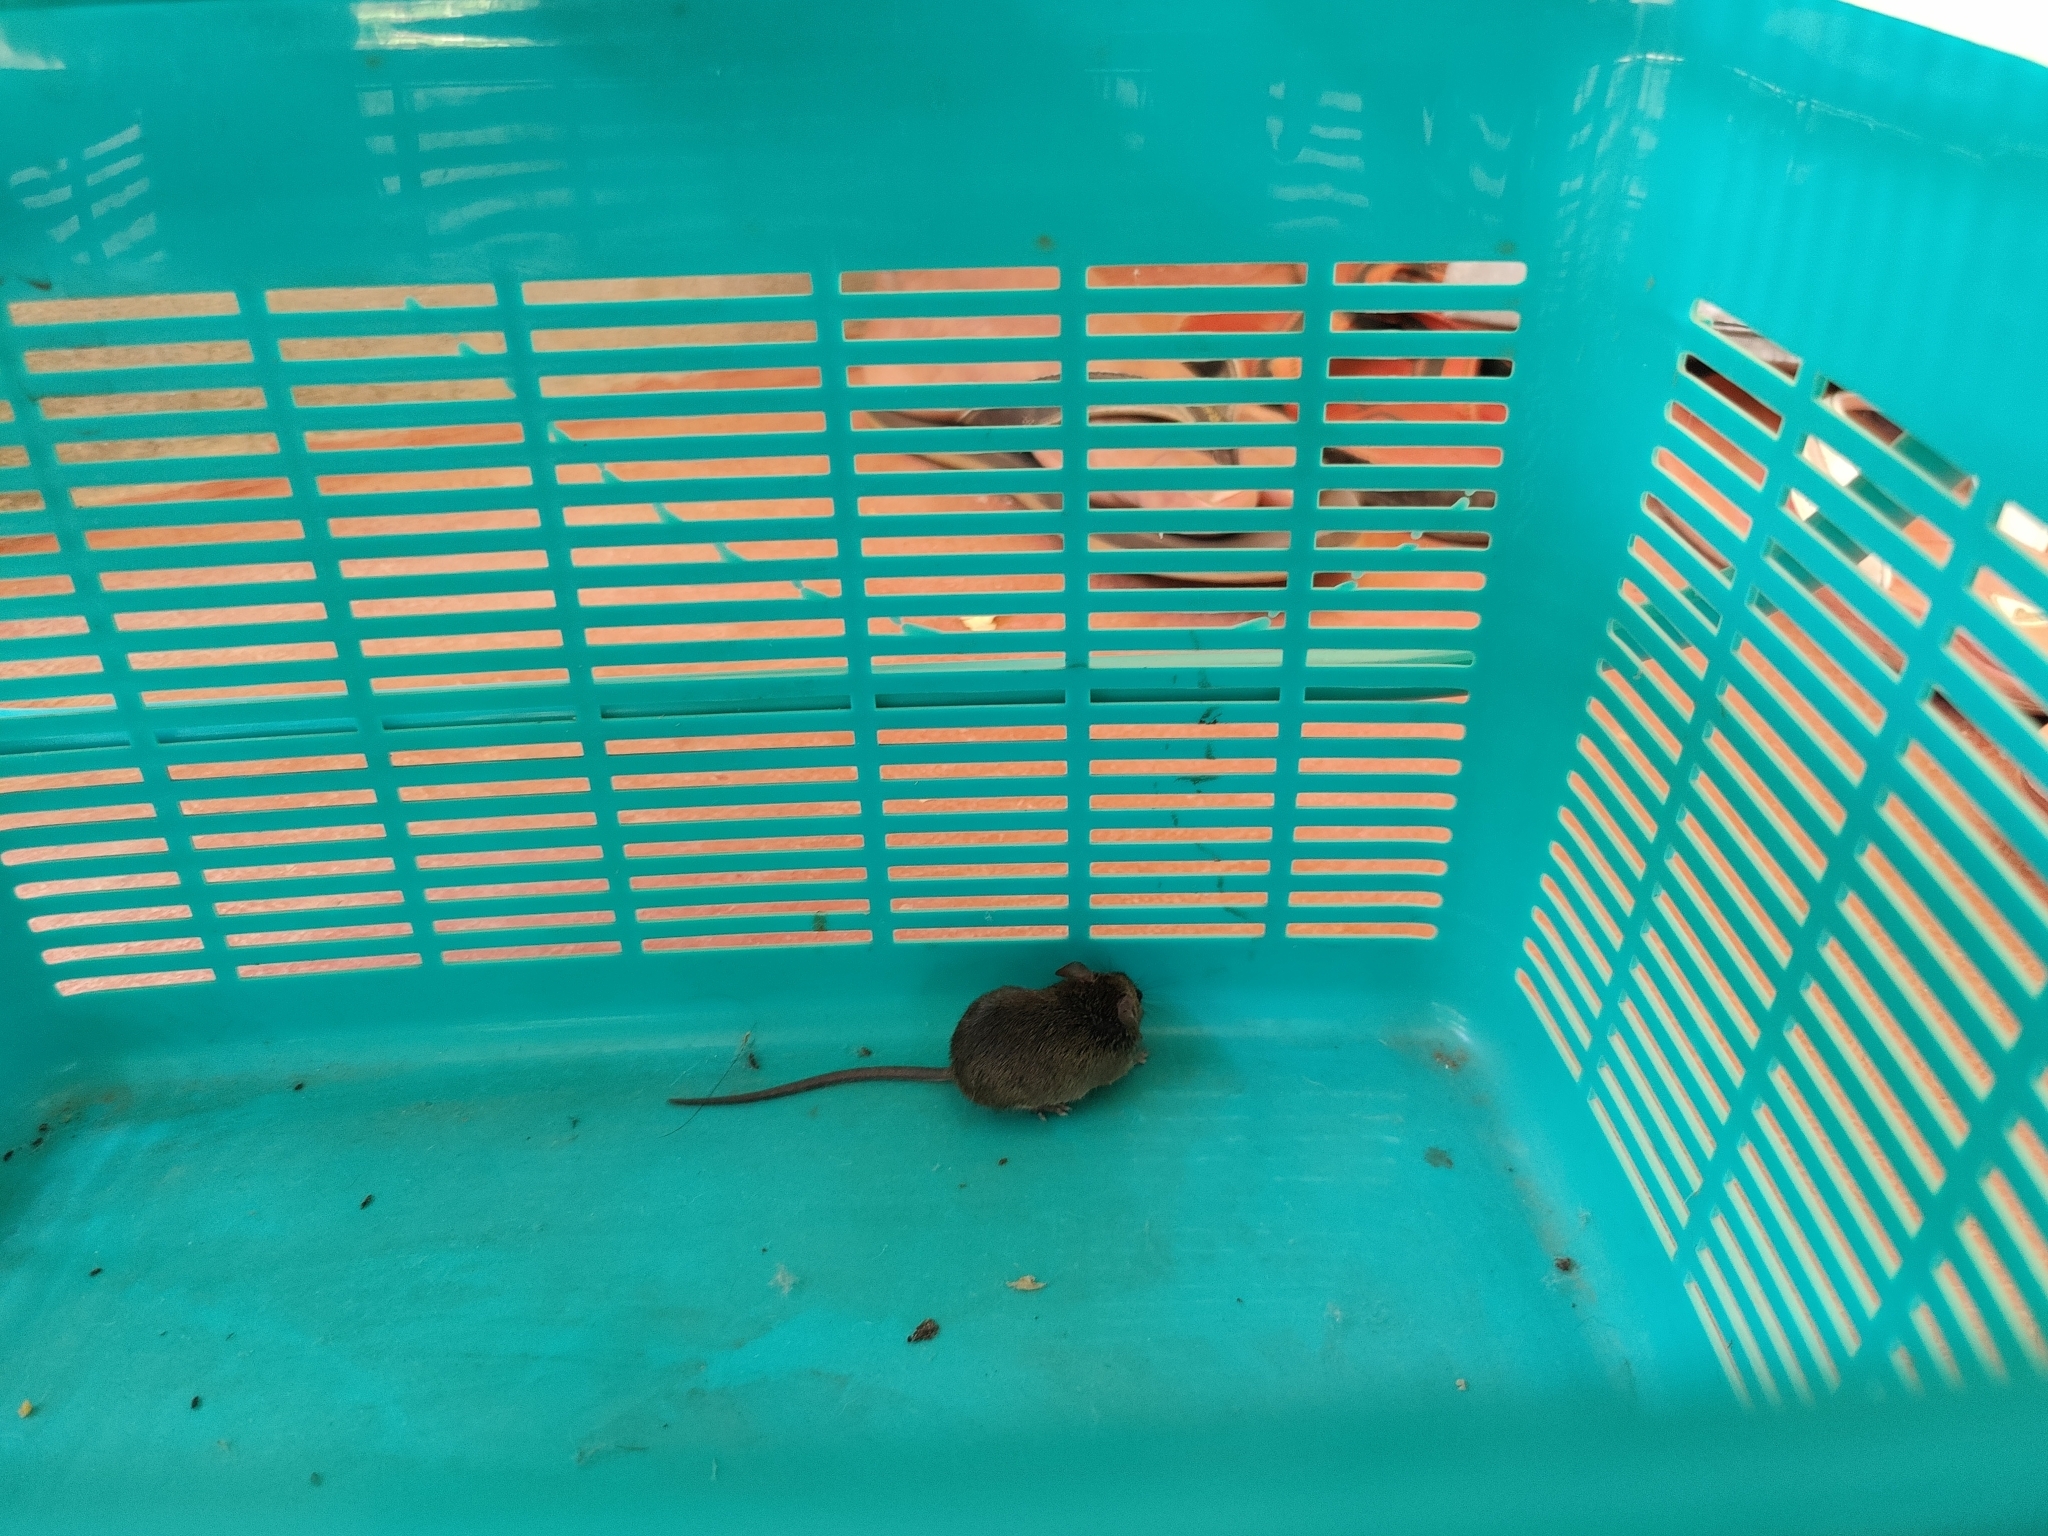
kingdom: Animalia
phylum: Chordata
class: Mammalia
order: Rodentia
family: Muridae
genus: Mus
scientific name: Mus musculus
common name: House mouse
